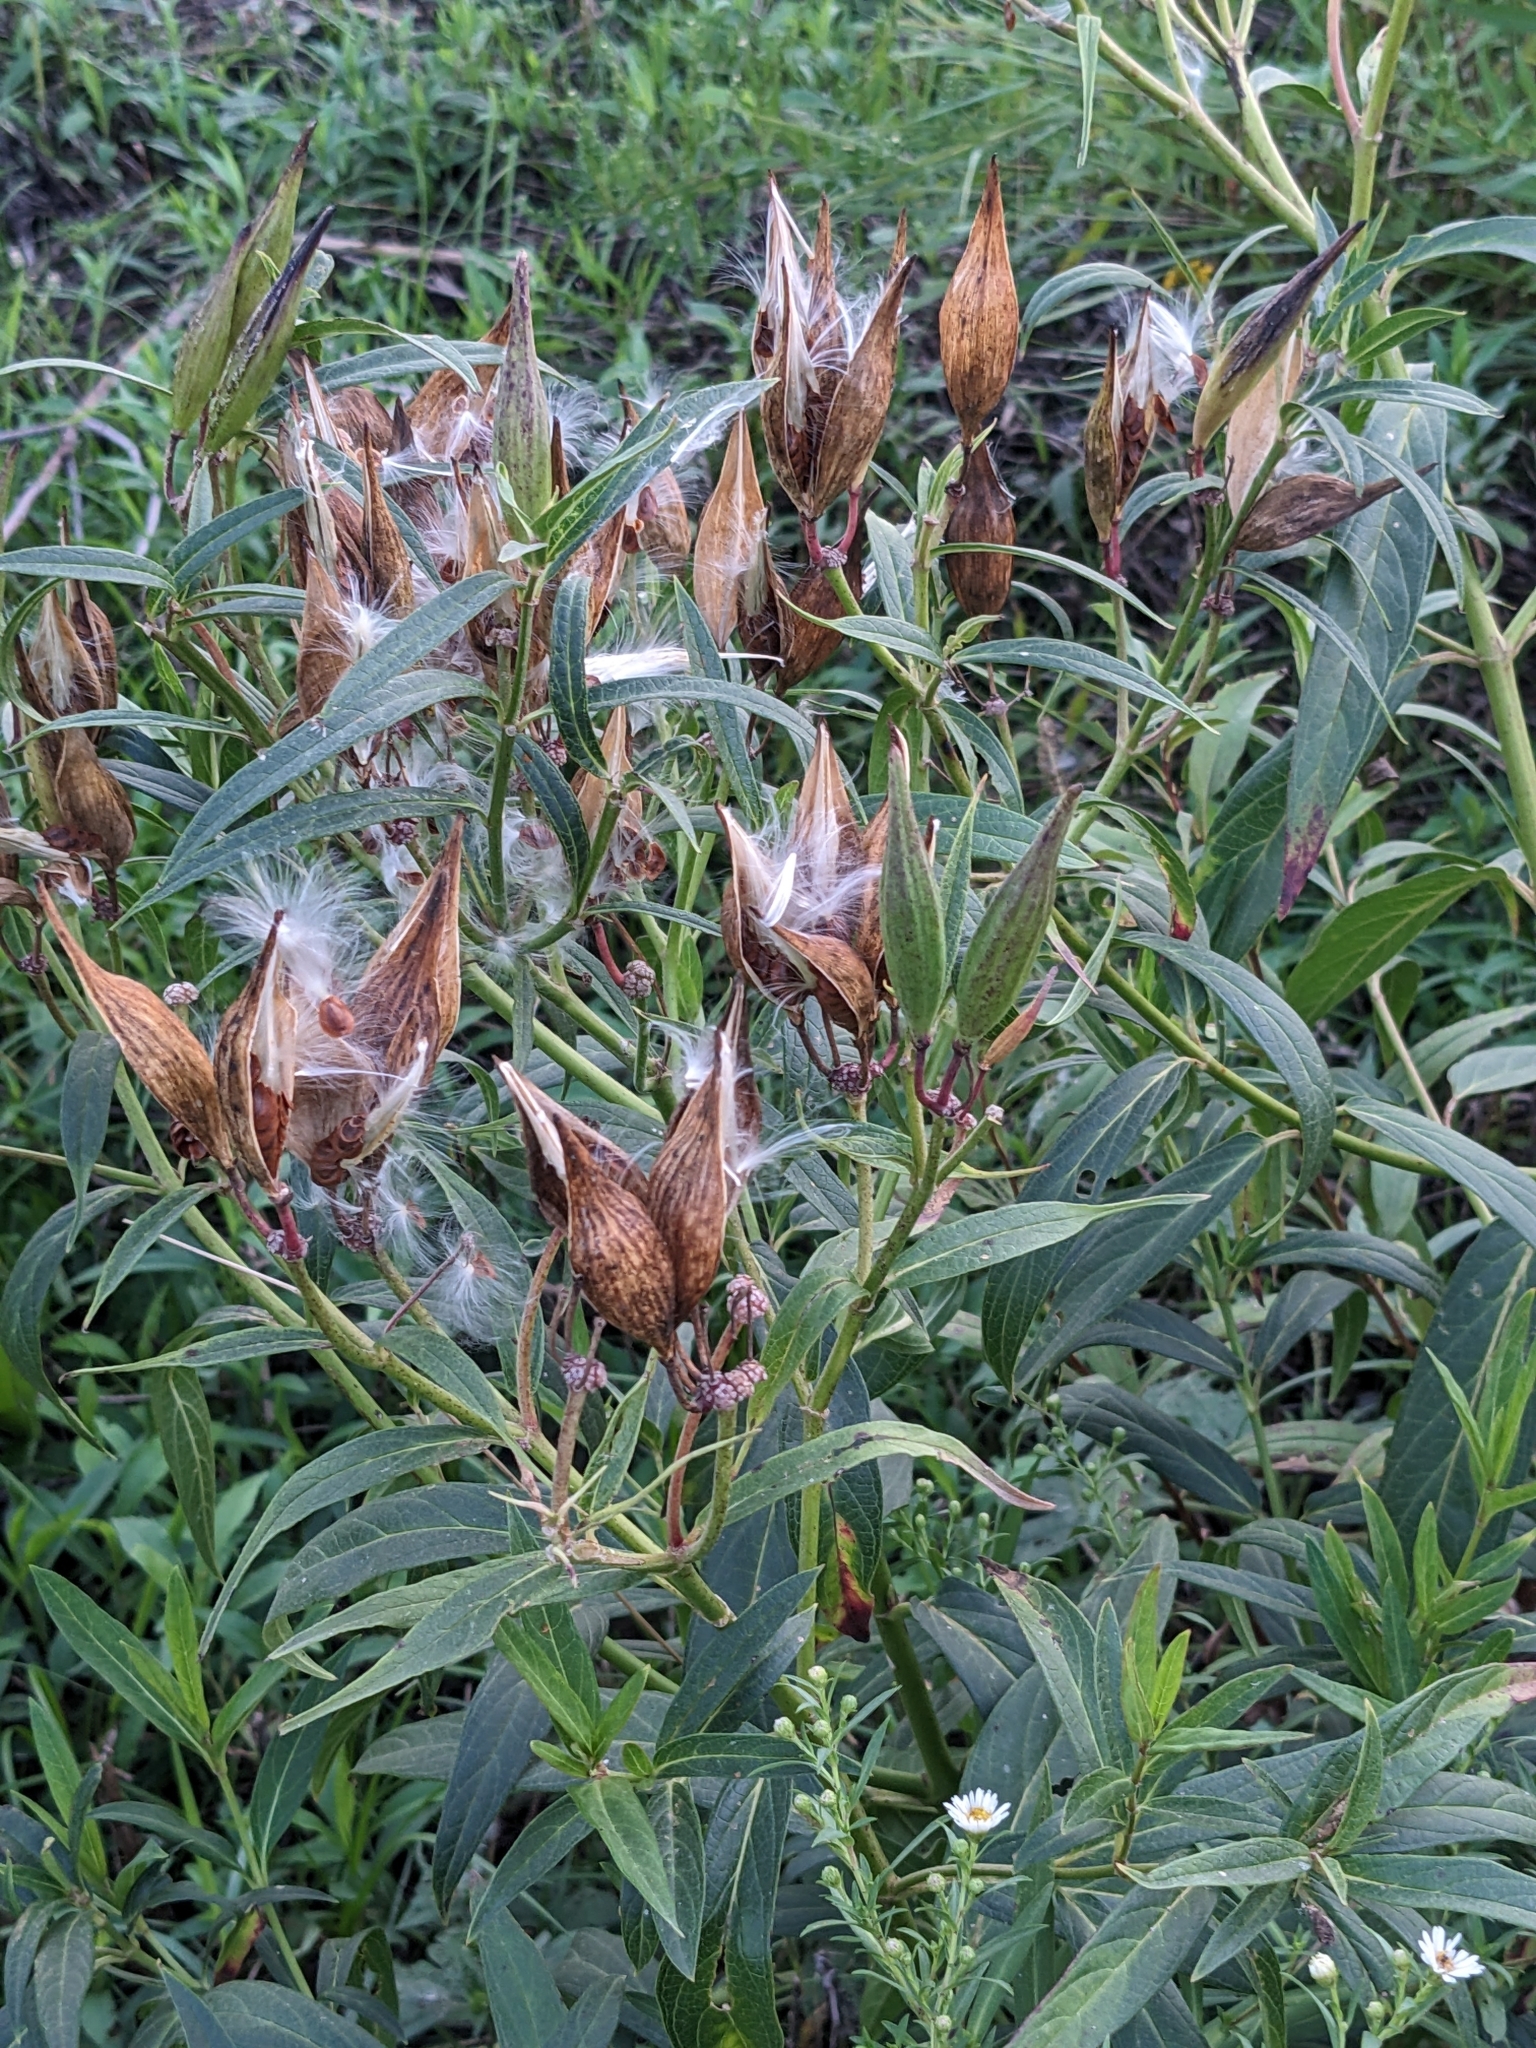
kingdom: Plantae
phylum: Tracheophyta
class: Magnoliopsida
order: Gentianales
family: Apocynaceae
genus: Asclepias
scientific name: Asclepias incarnata
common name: Swamp milkweed
